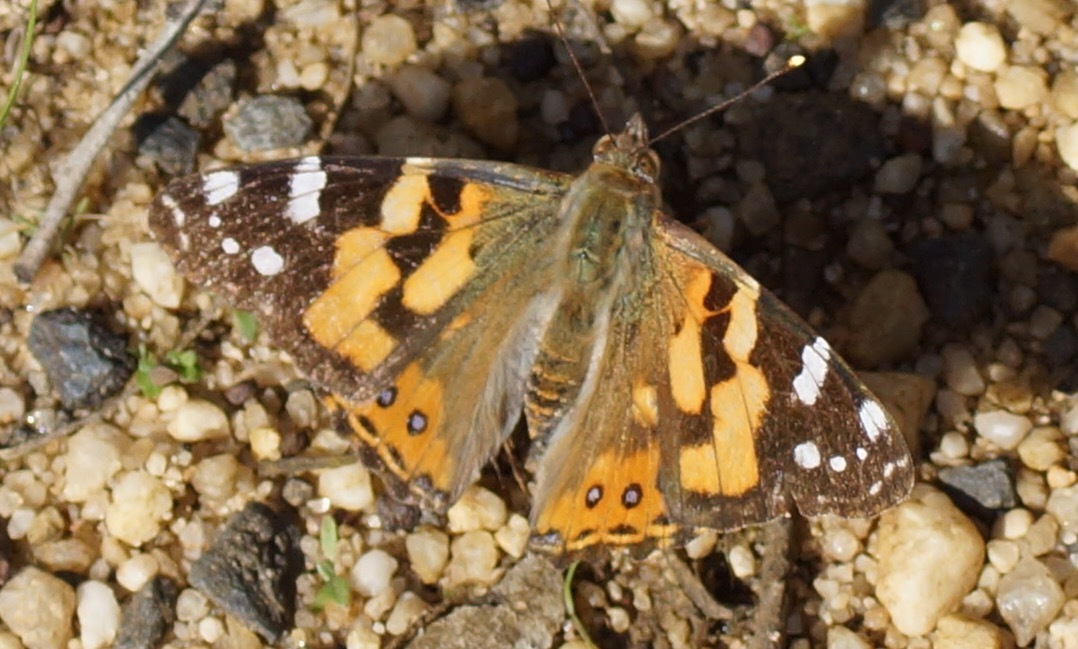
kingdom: Animalia
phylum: Arthropoda
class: Insecta
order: Lepidoptera
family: Nymphalidae
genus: Vanessa
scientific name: Vanessa kershawi
